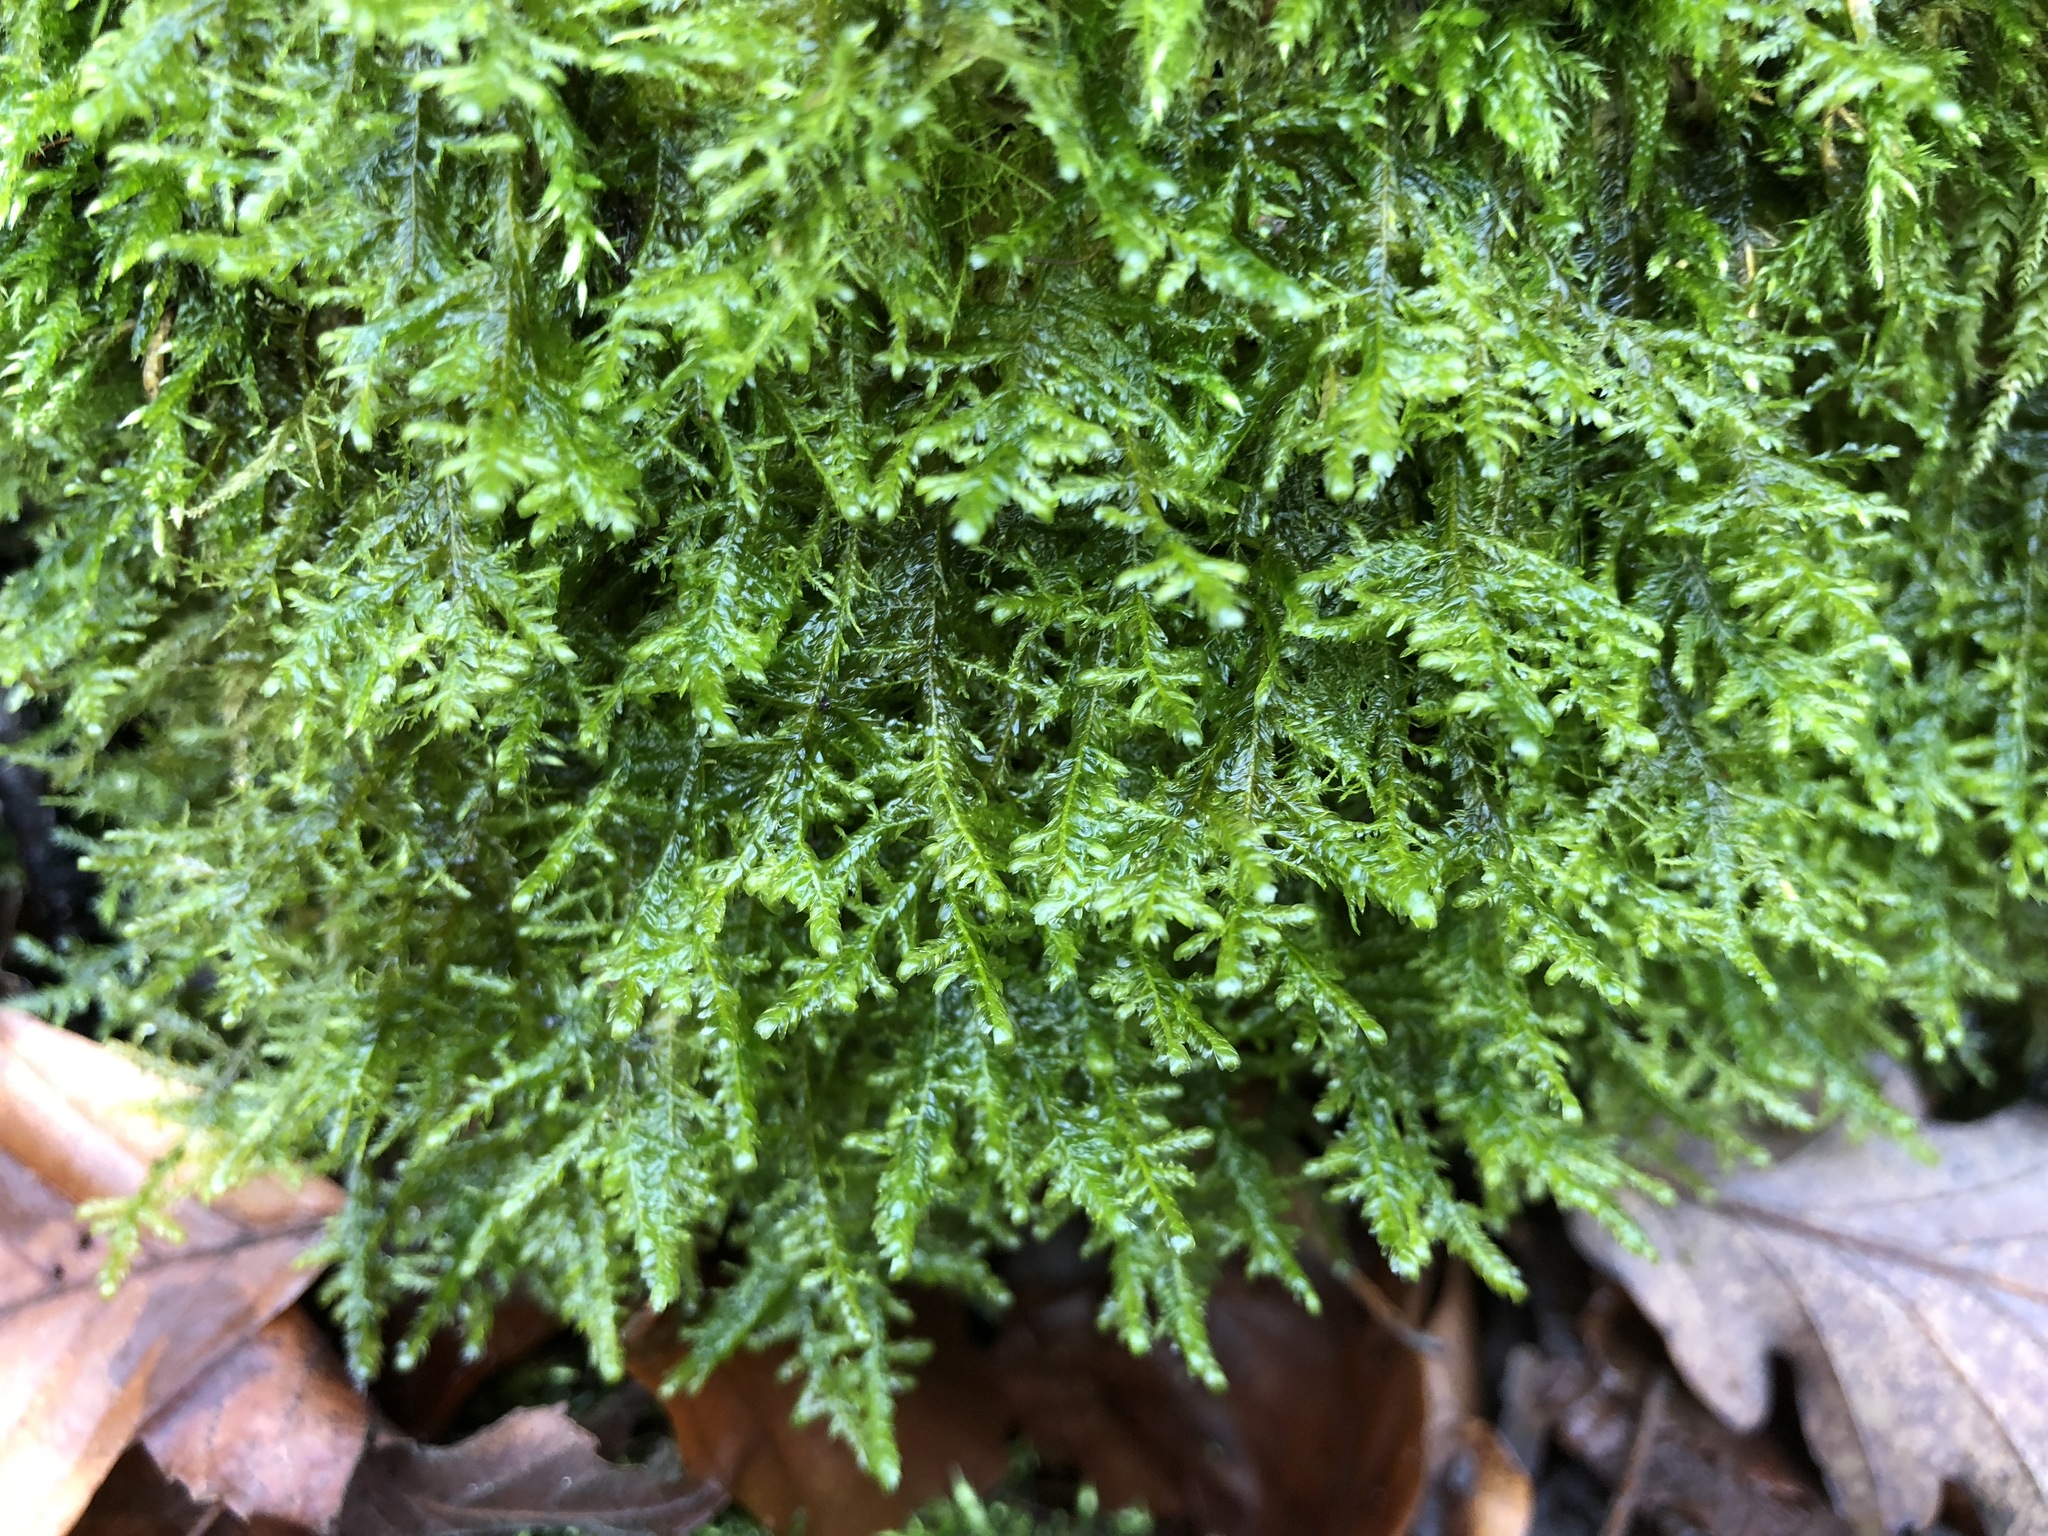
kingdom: Plantae
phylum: Bryophyta
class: Bryopsida
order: Hypnales
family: Neckeraceae
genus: Alleniella
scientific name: Alleniella complanata
